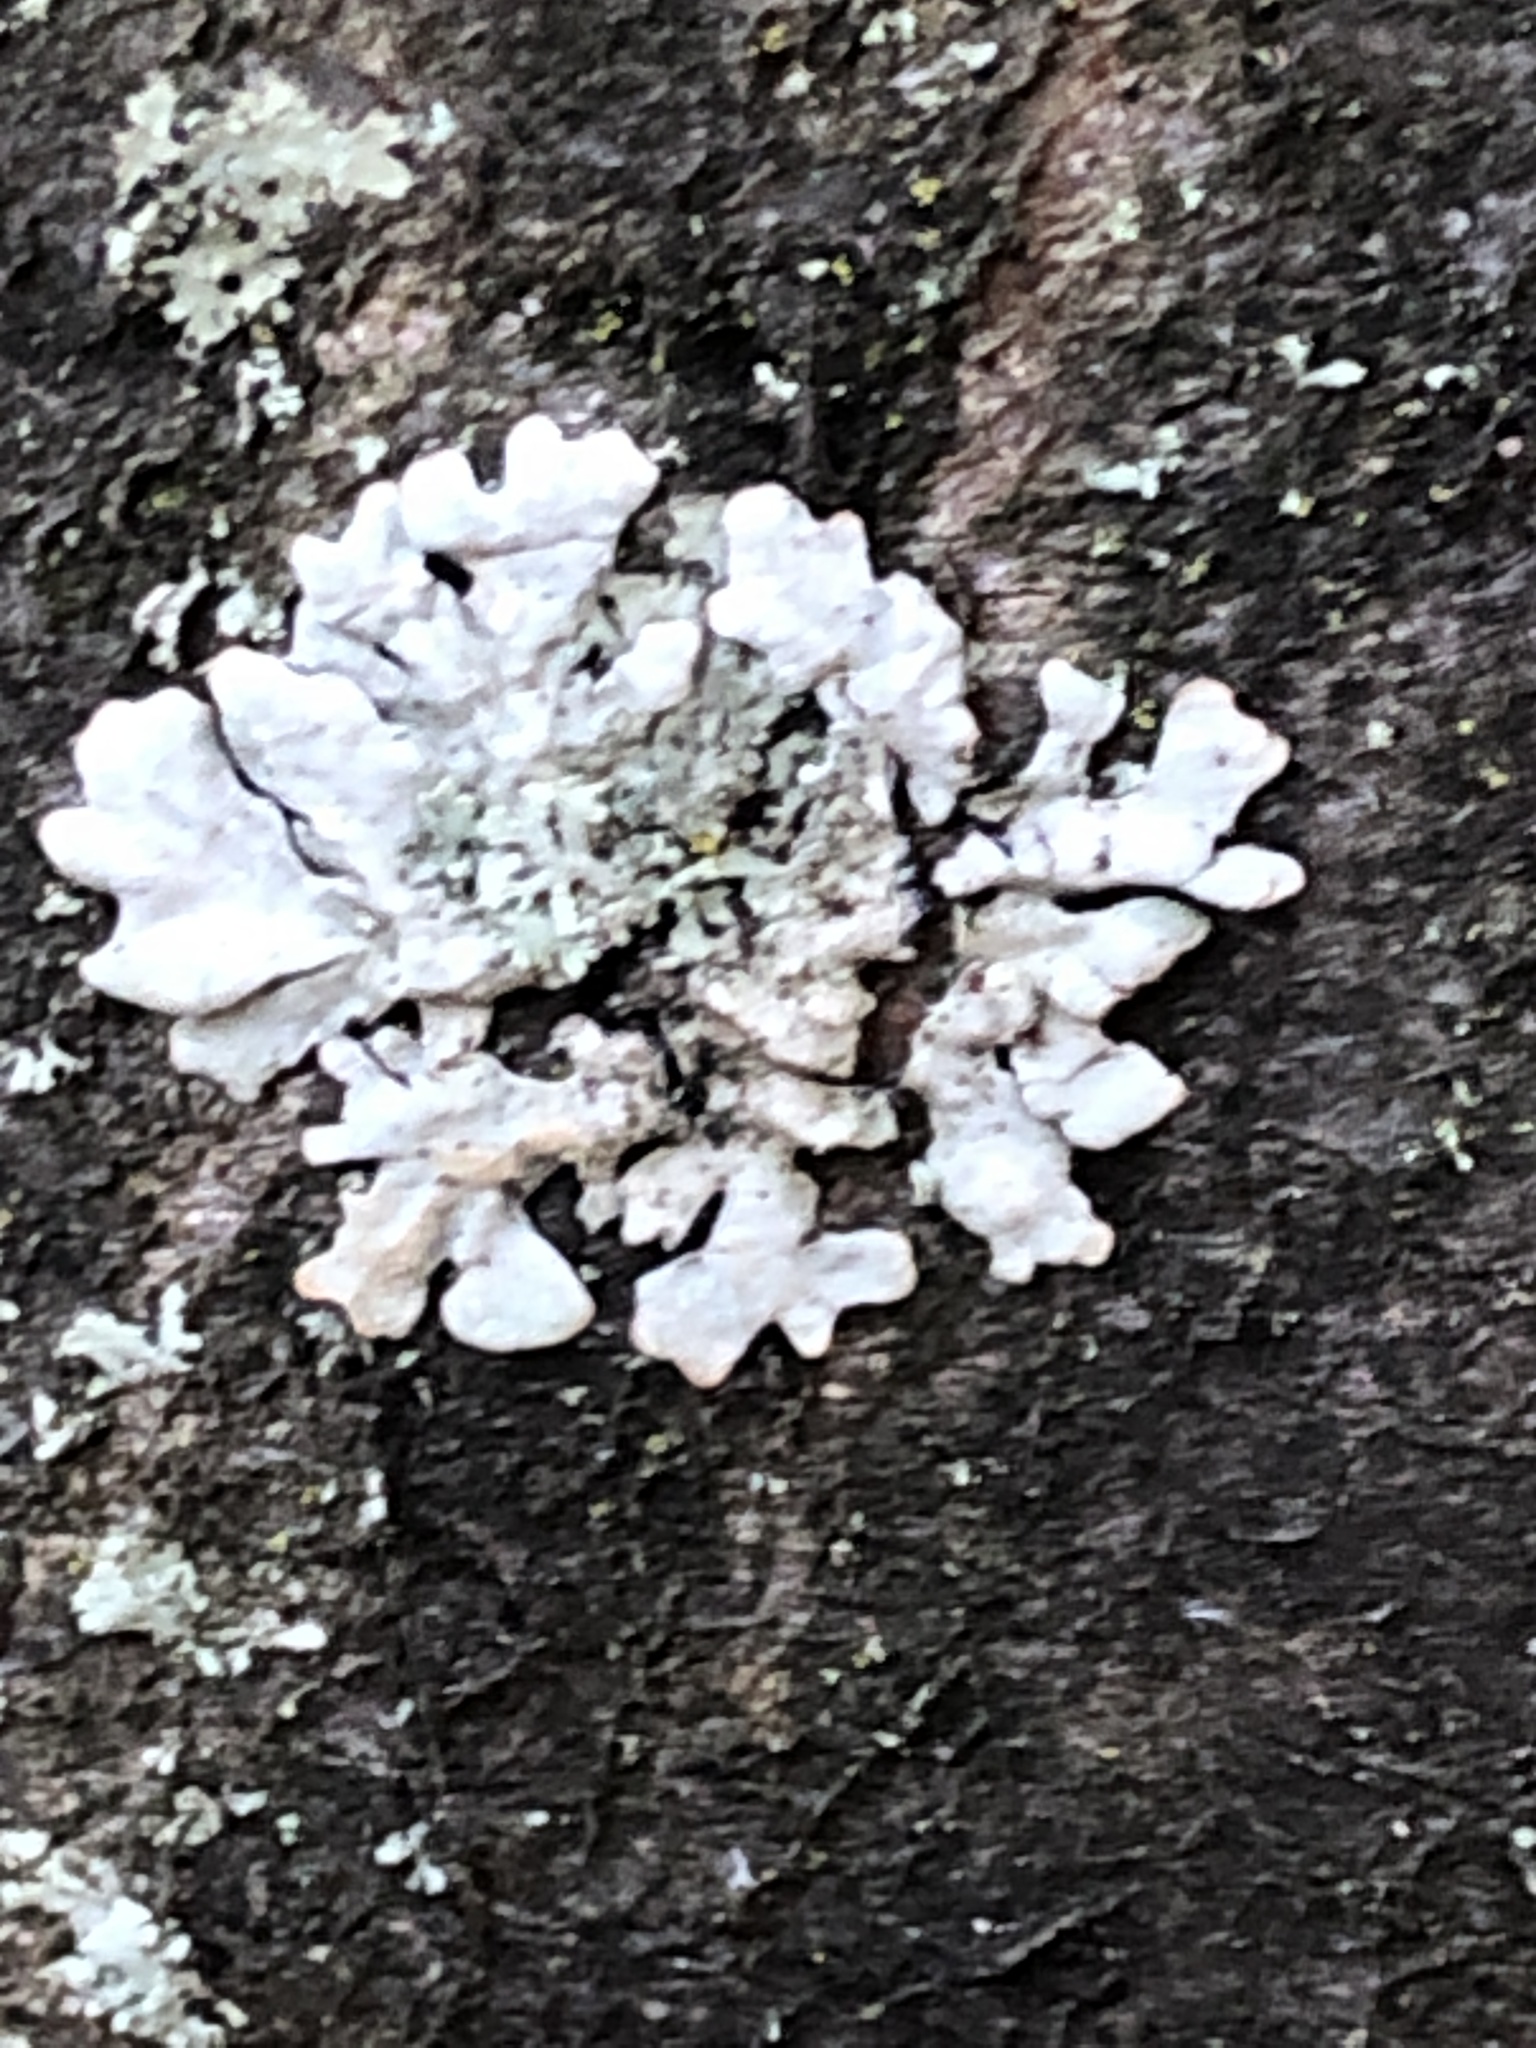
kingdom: Fungi
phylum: Ascomycota
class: Lecanoromycetes
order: Lecanorales
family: Parmeliaceae
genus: Parmelia
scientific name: Parmelia sulcata
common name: Netted shield lichen
